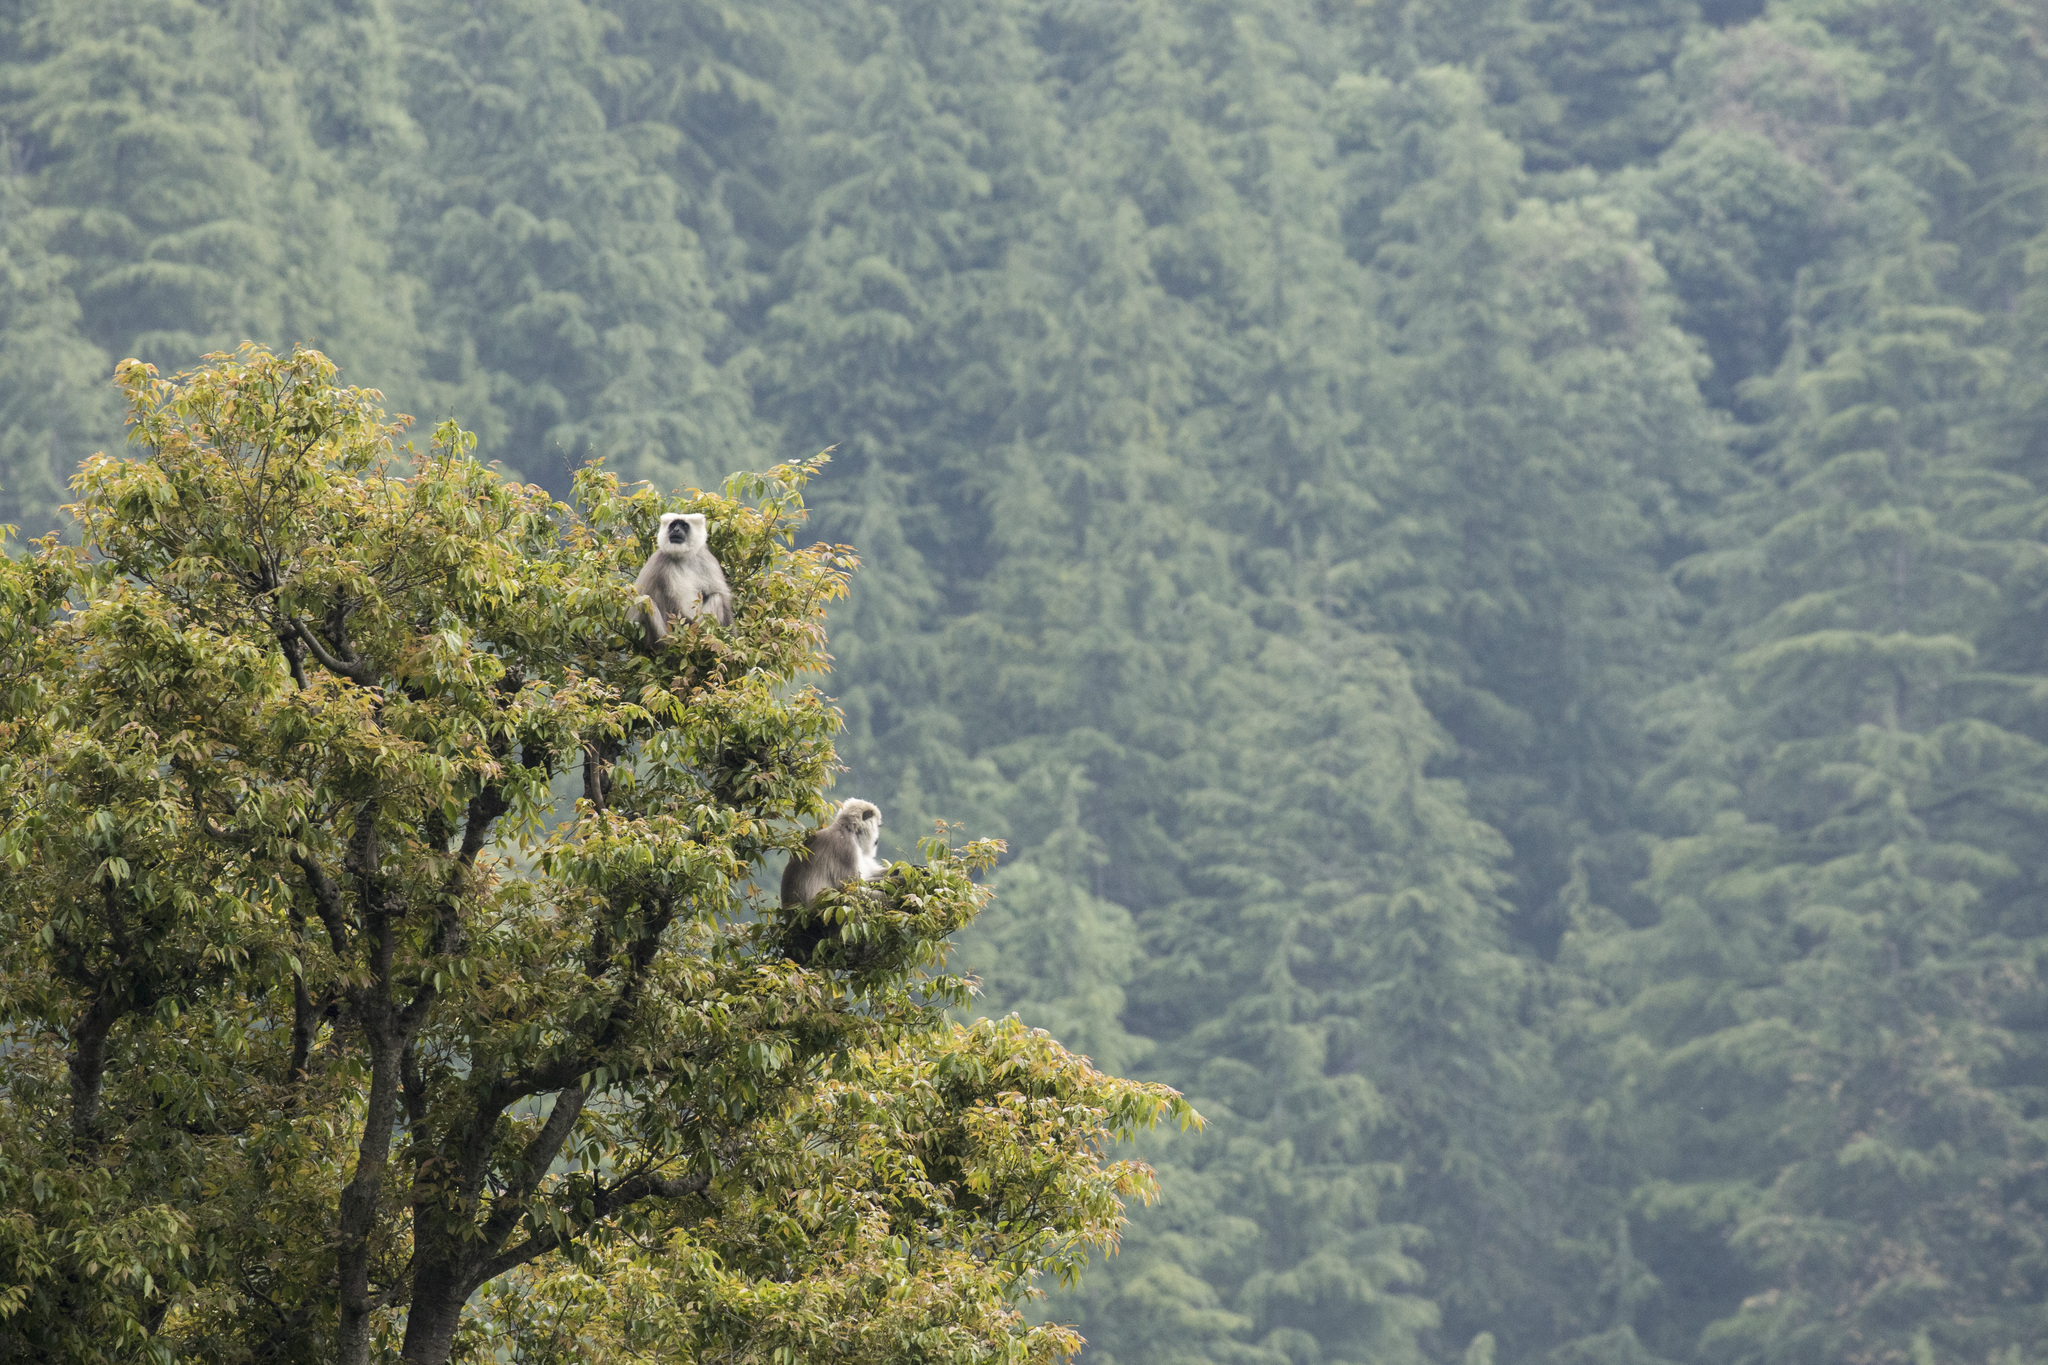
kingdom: Animalia
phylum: Chordata
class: Mammalia
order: Primates
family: Cercopithecidae
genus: Semnopithecus
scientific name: Semnopithecus schistaceus
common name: Nepal gray langur
